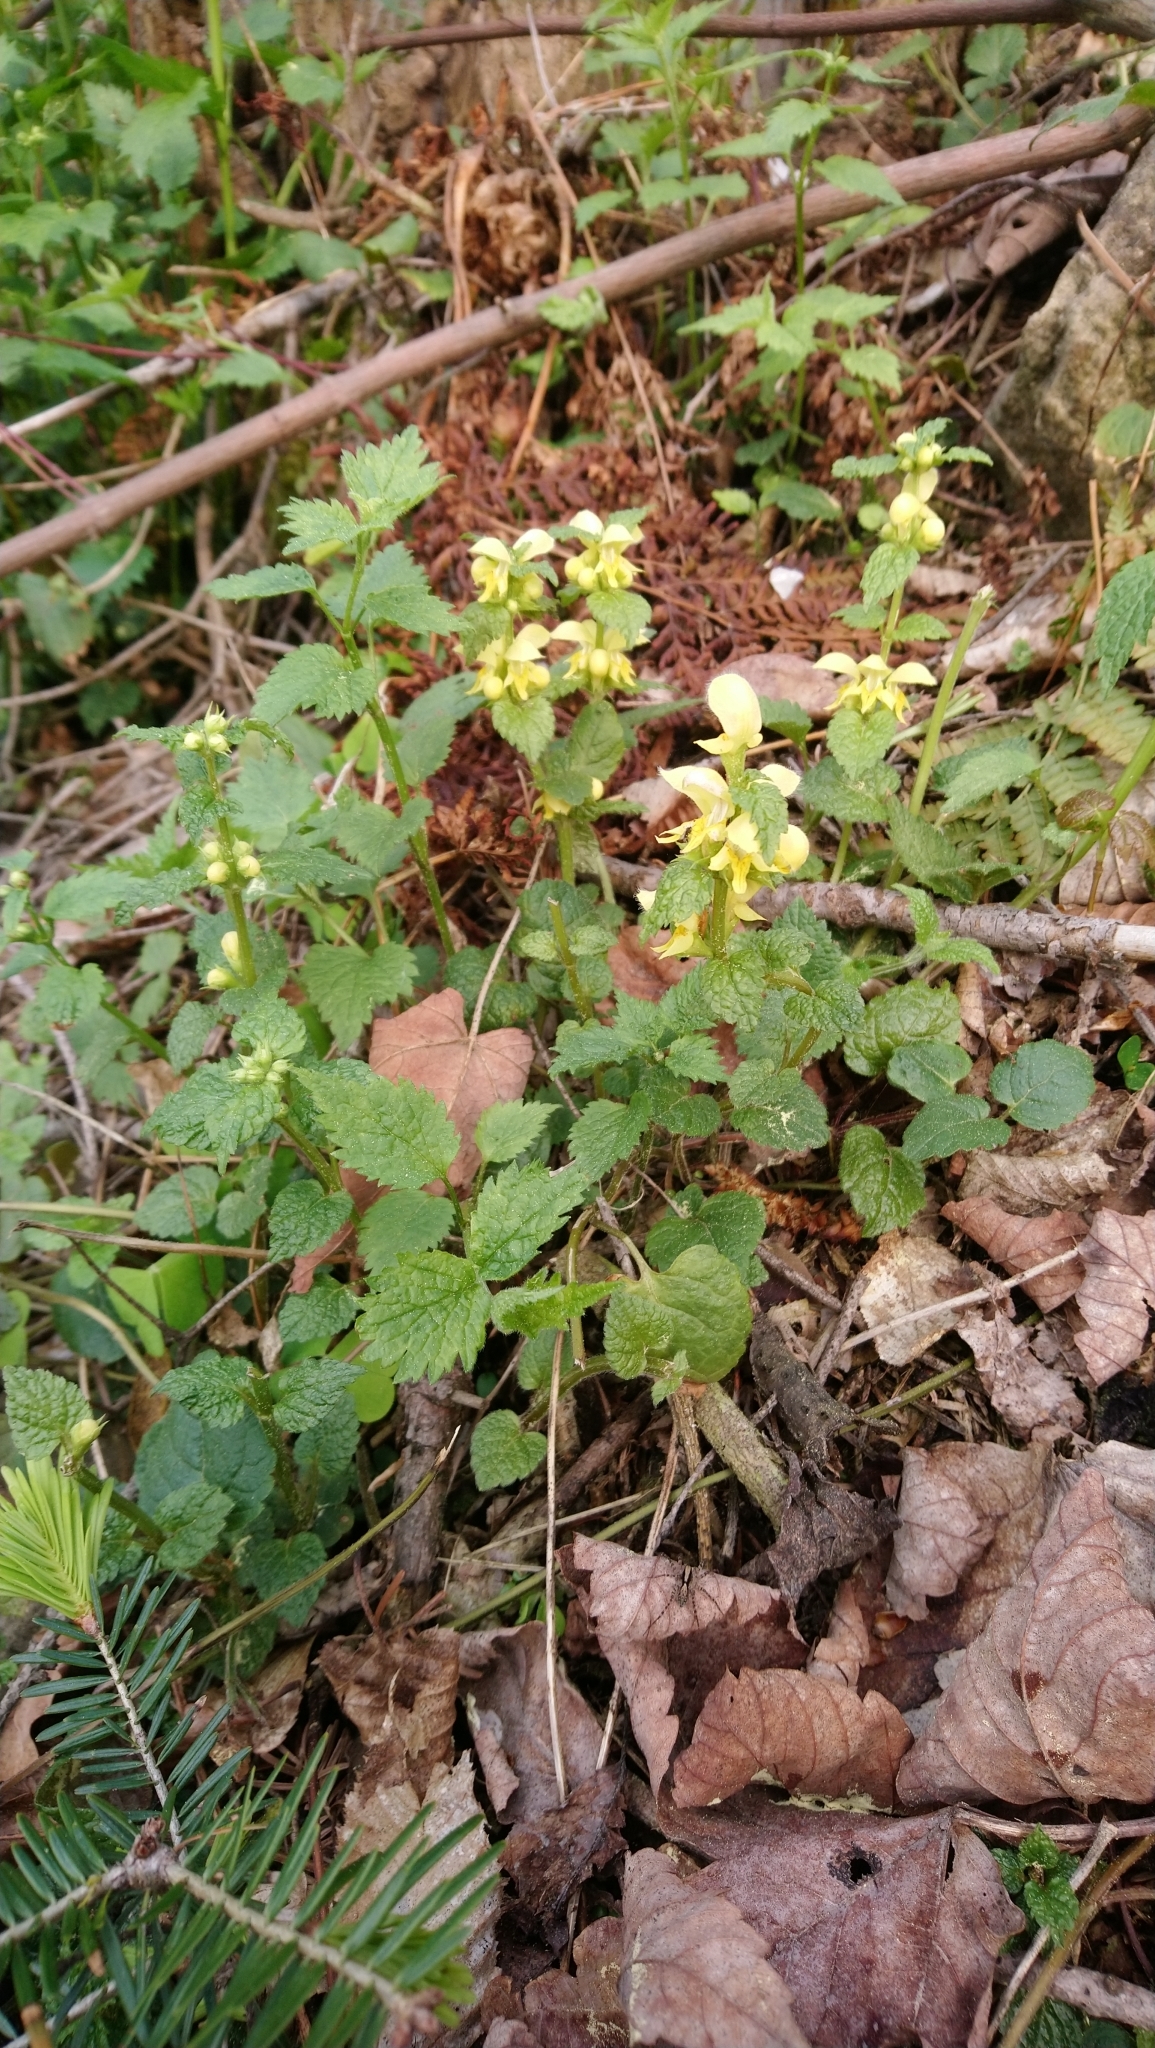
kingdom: Plantae
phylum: Tracheophyta
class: Magnoliopsida
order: Lamiales
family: Lamiaceae
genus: Lamium
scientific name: Lamium galeobdolon
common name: Yellow archangel
